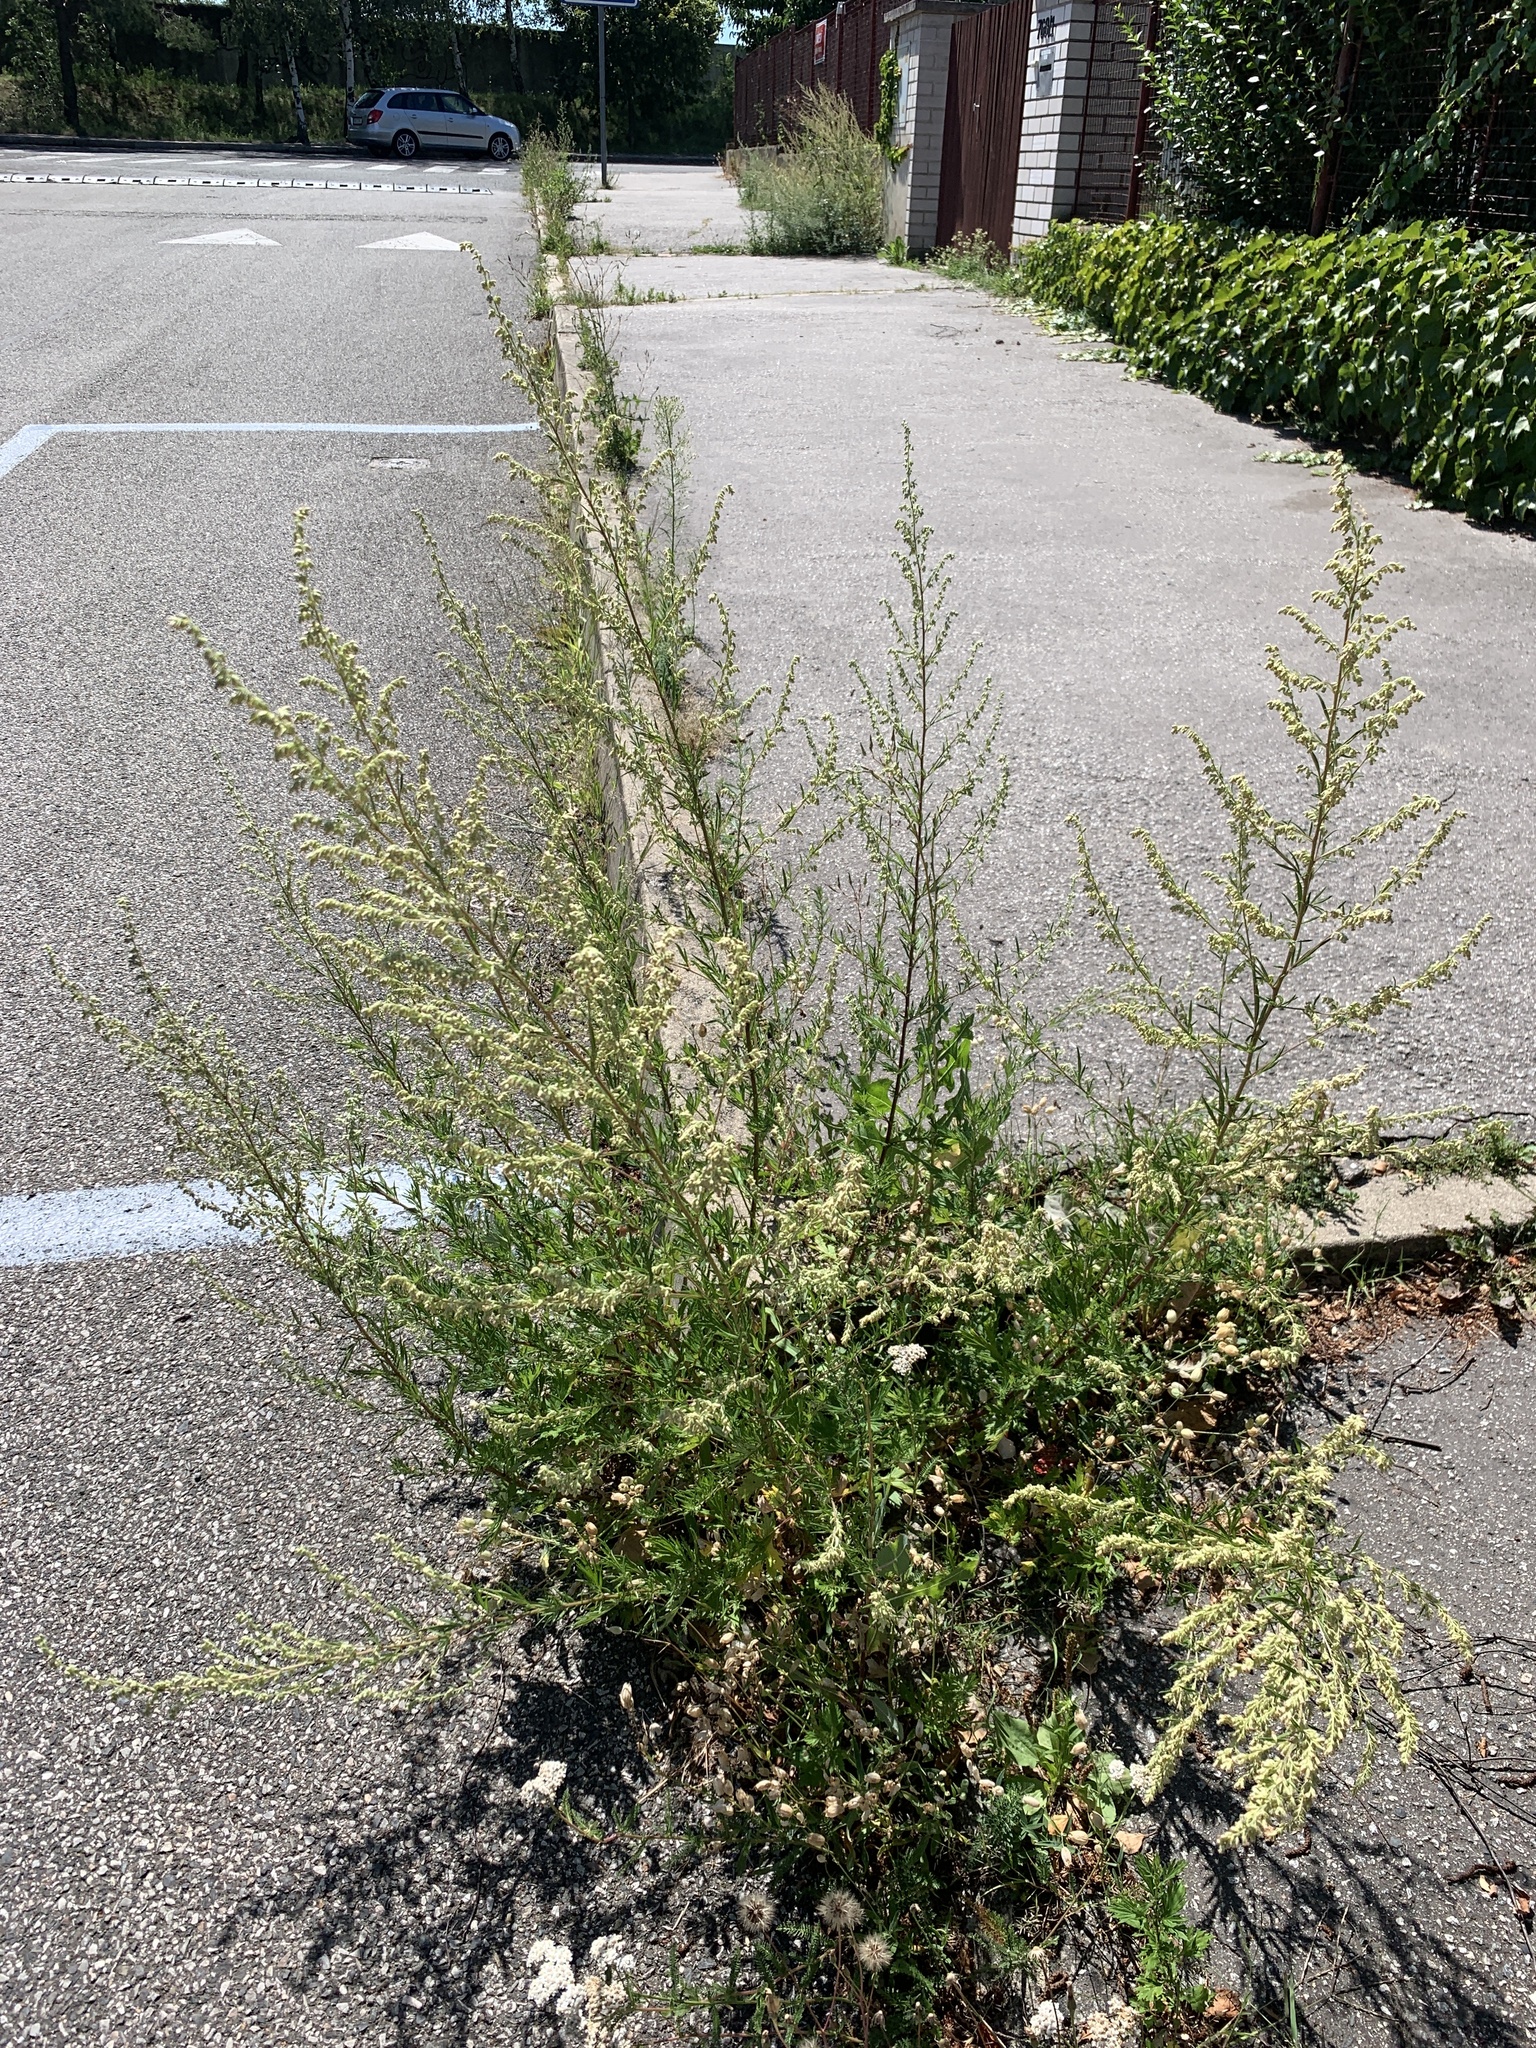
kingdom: Plantae
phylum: Tracheophyta
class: Magnoliopsida
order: Asterales
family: Asteraceae
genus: Artemisia
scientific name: Artemisia vulgaris
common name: Mugwort
